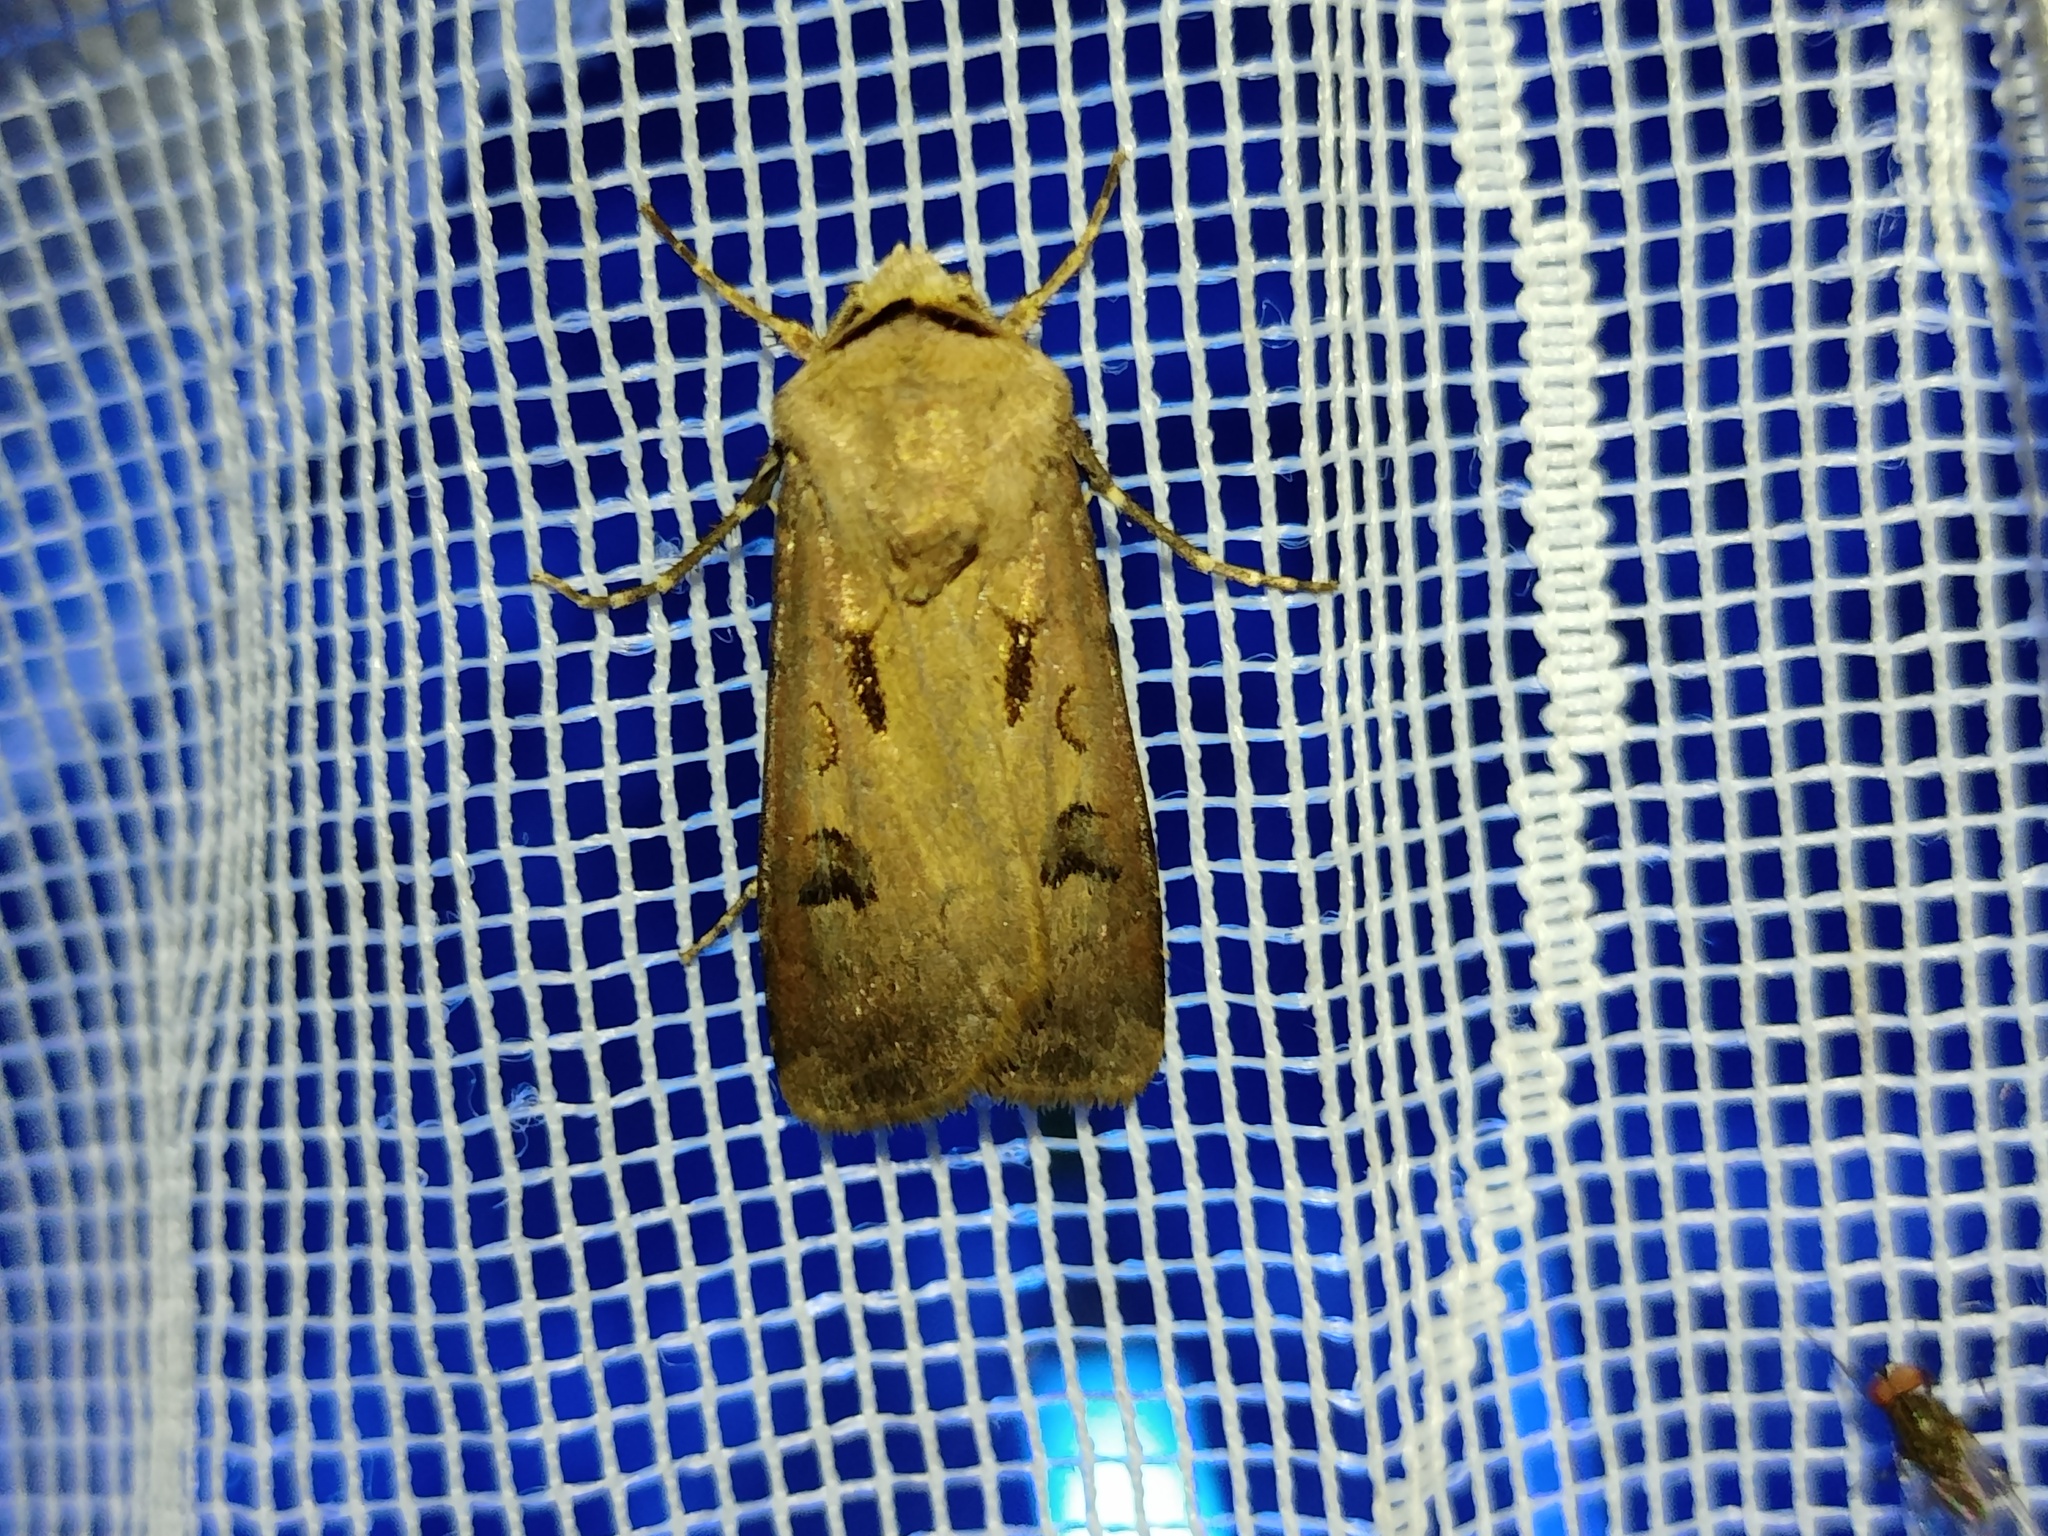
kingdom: Animalia
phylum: Arthropoda
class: Insecta
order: Lepidoptera
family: Noctuidae
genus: Agrotis
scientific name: Agrotis exclamationis
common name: Heart and dart
